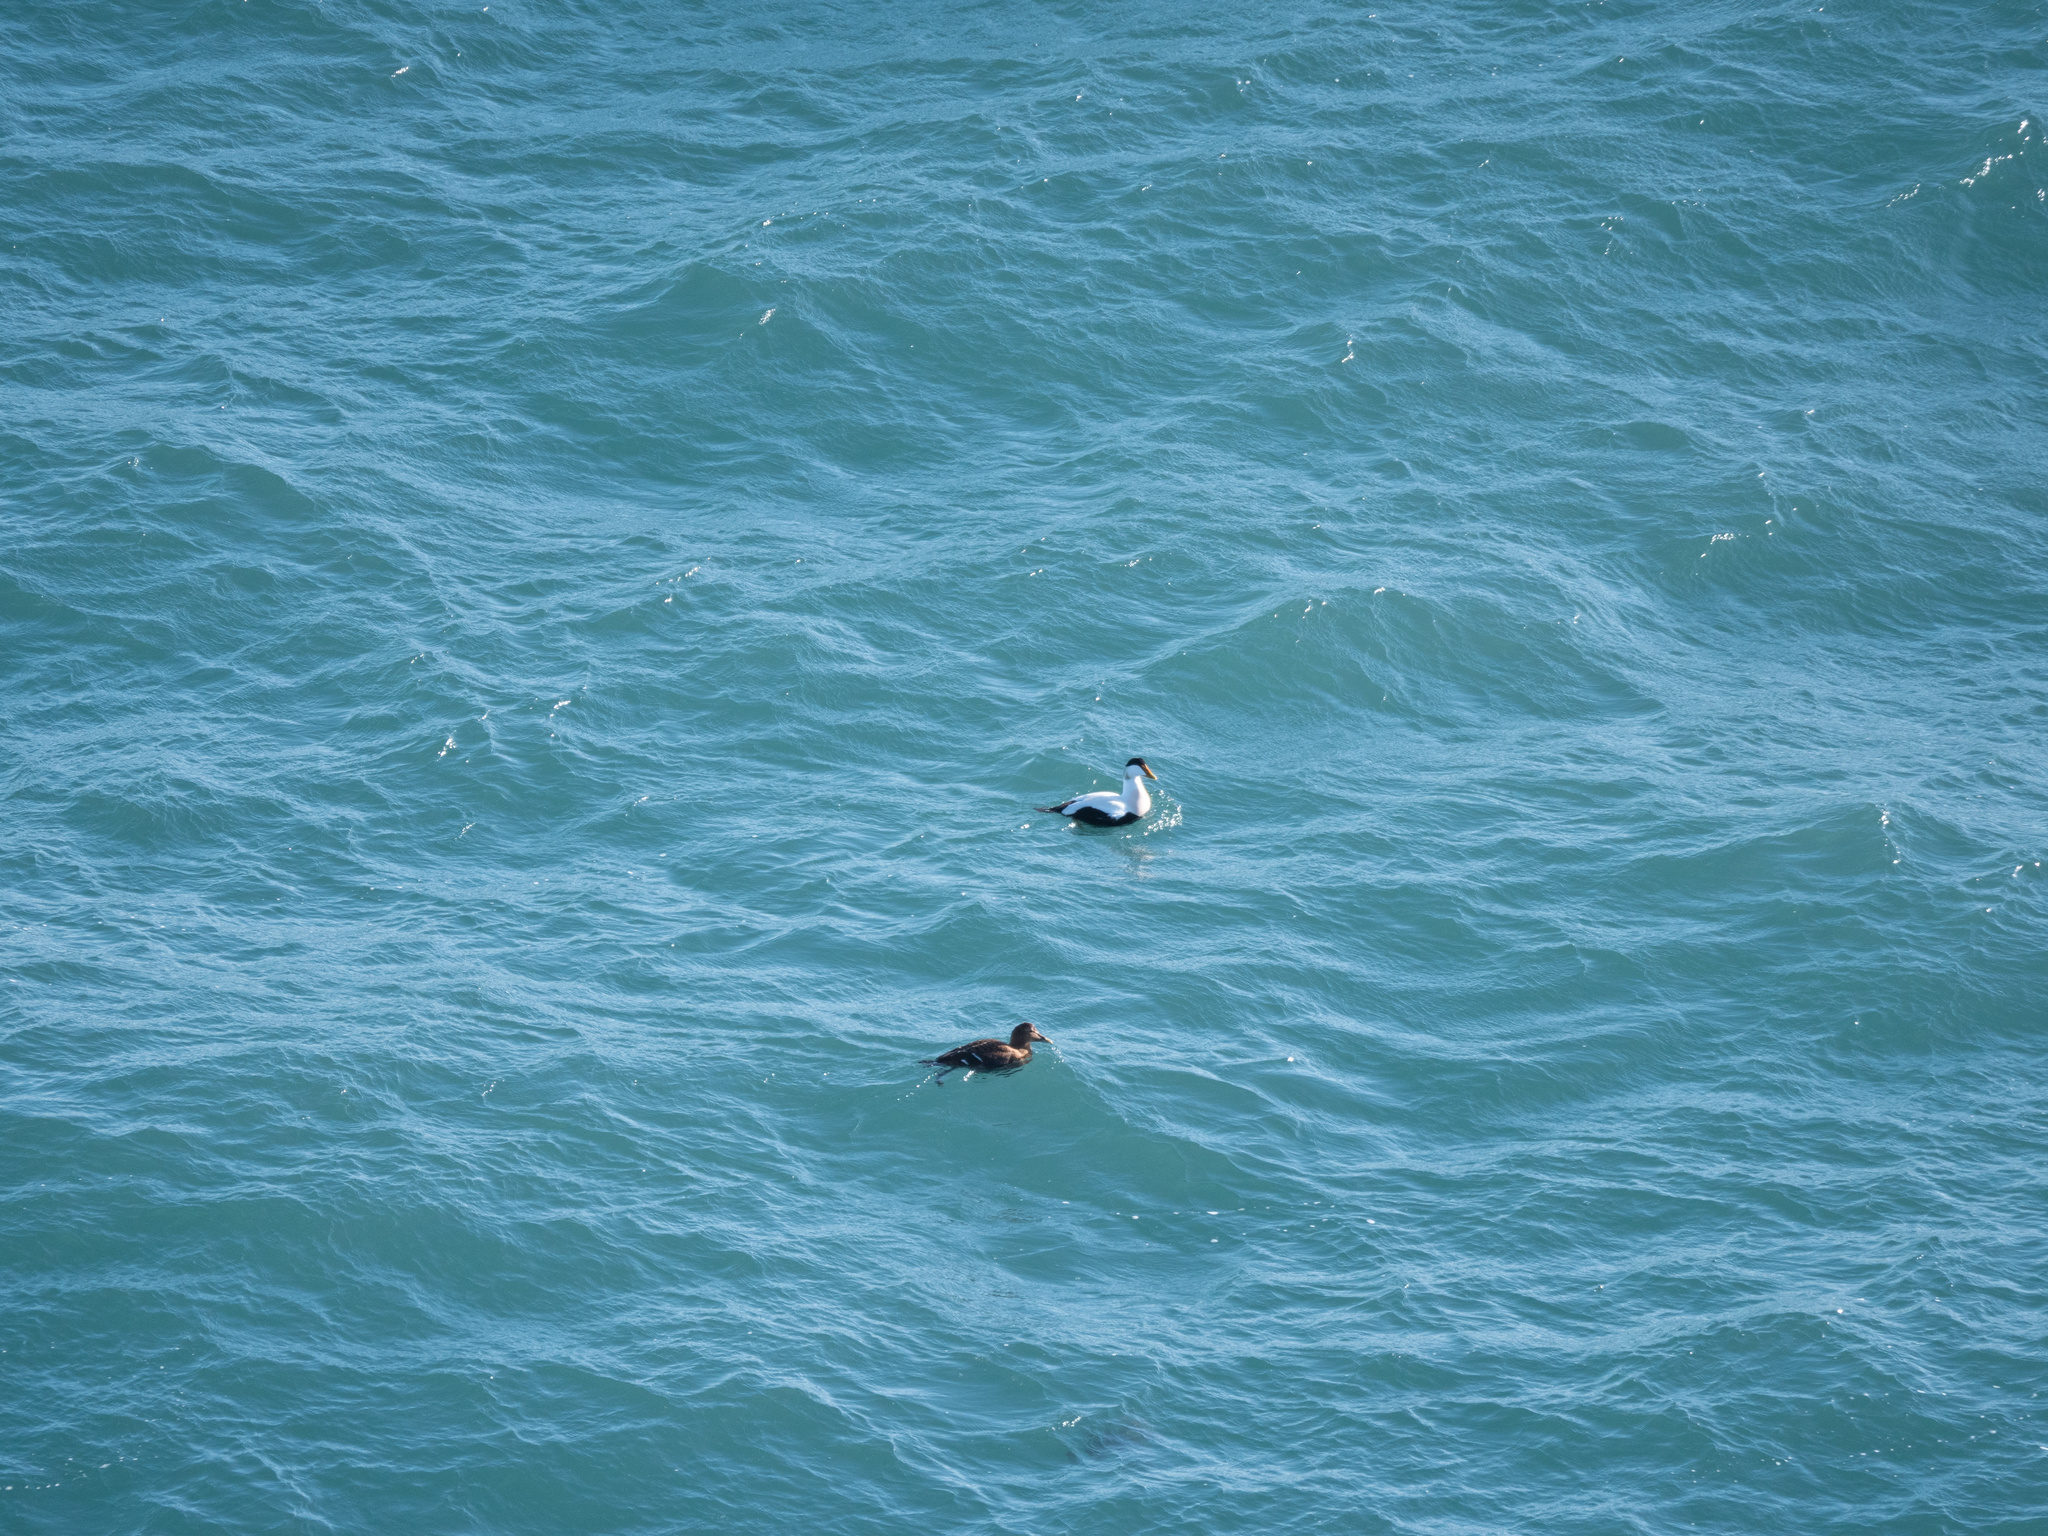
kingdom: Animalia
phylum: Chordata
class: Aves
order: Anseriformes
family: Anatidae
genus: Somateria
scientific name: Somateria mollissima
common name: Common eider
